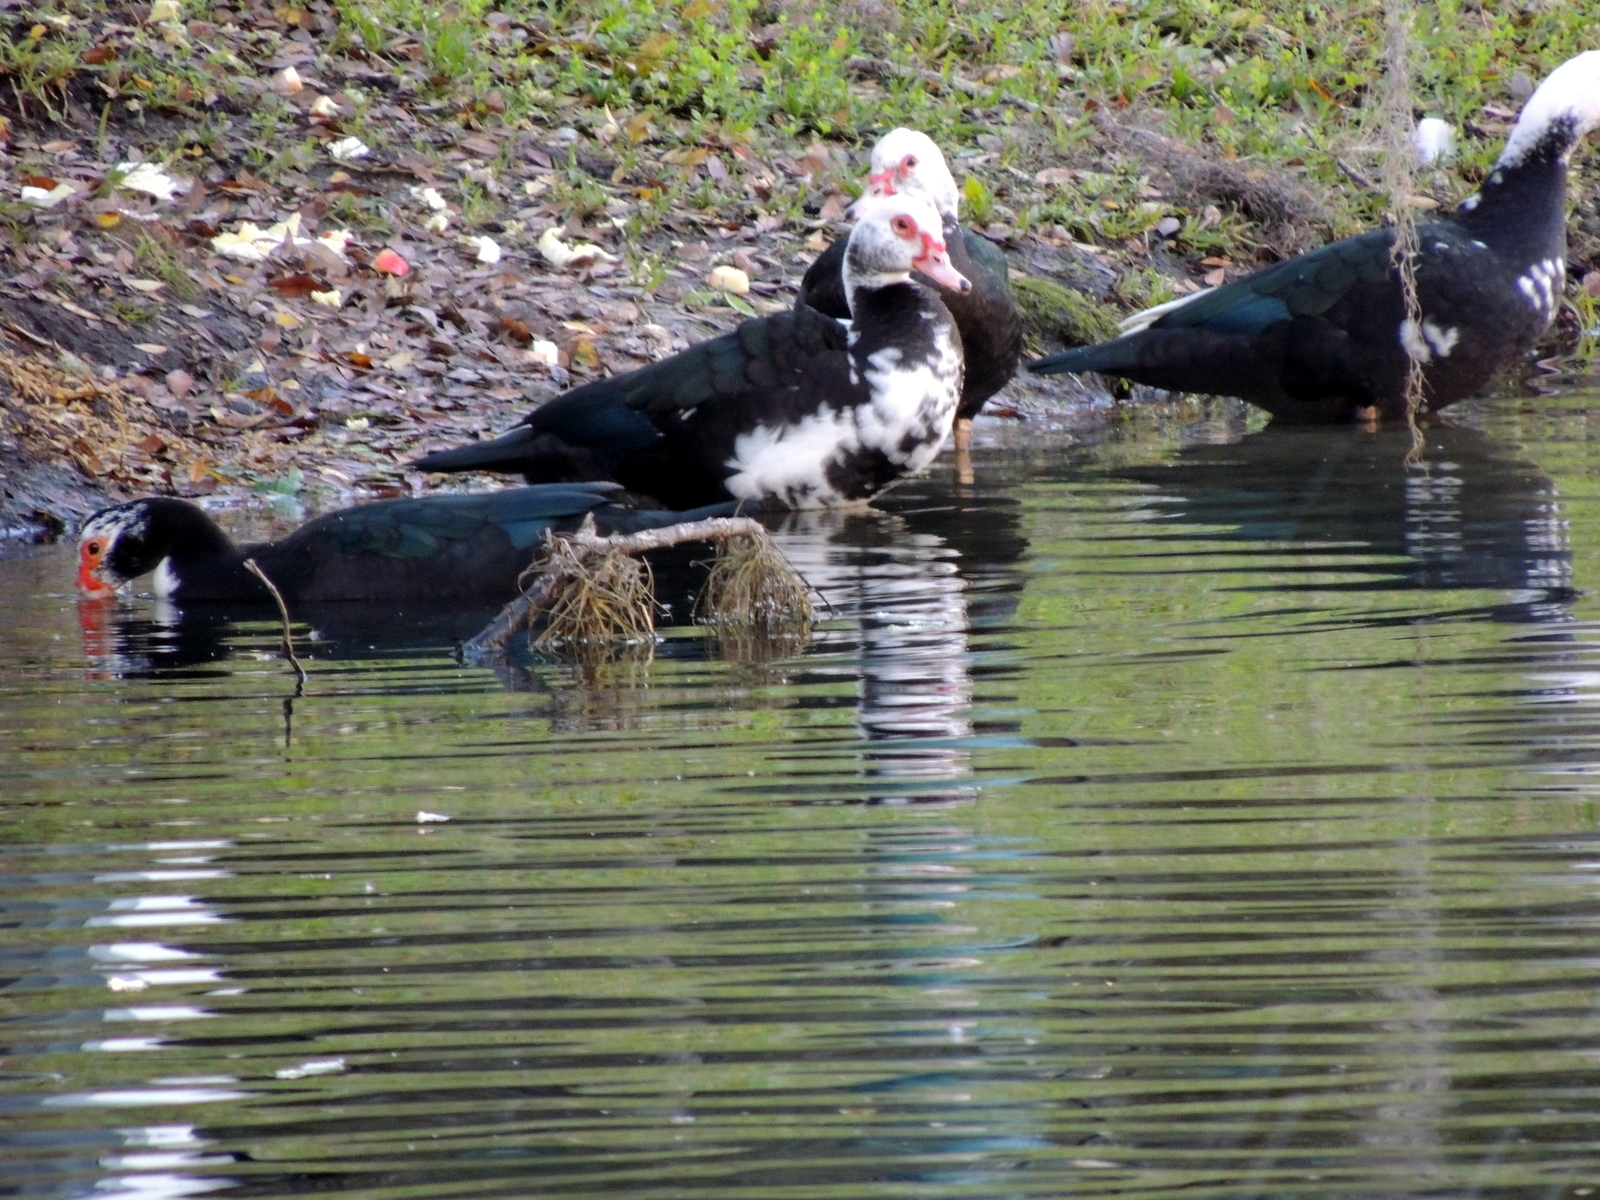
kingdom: Animalia
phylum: Chordata
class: Aves
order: Anseriformes
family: Anatidae
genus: Cairina
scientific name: Cairina moschata
